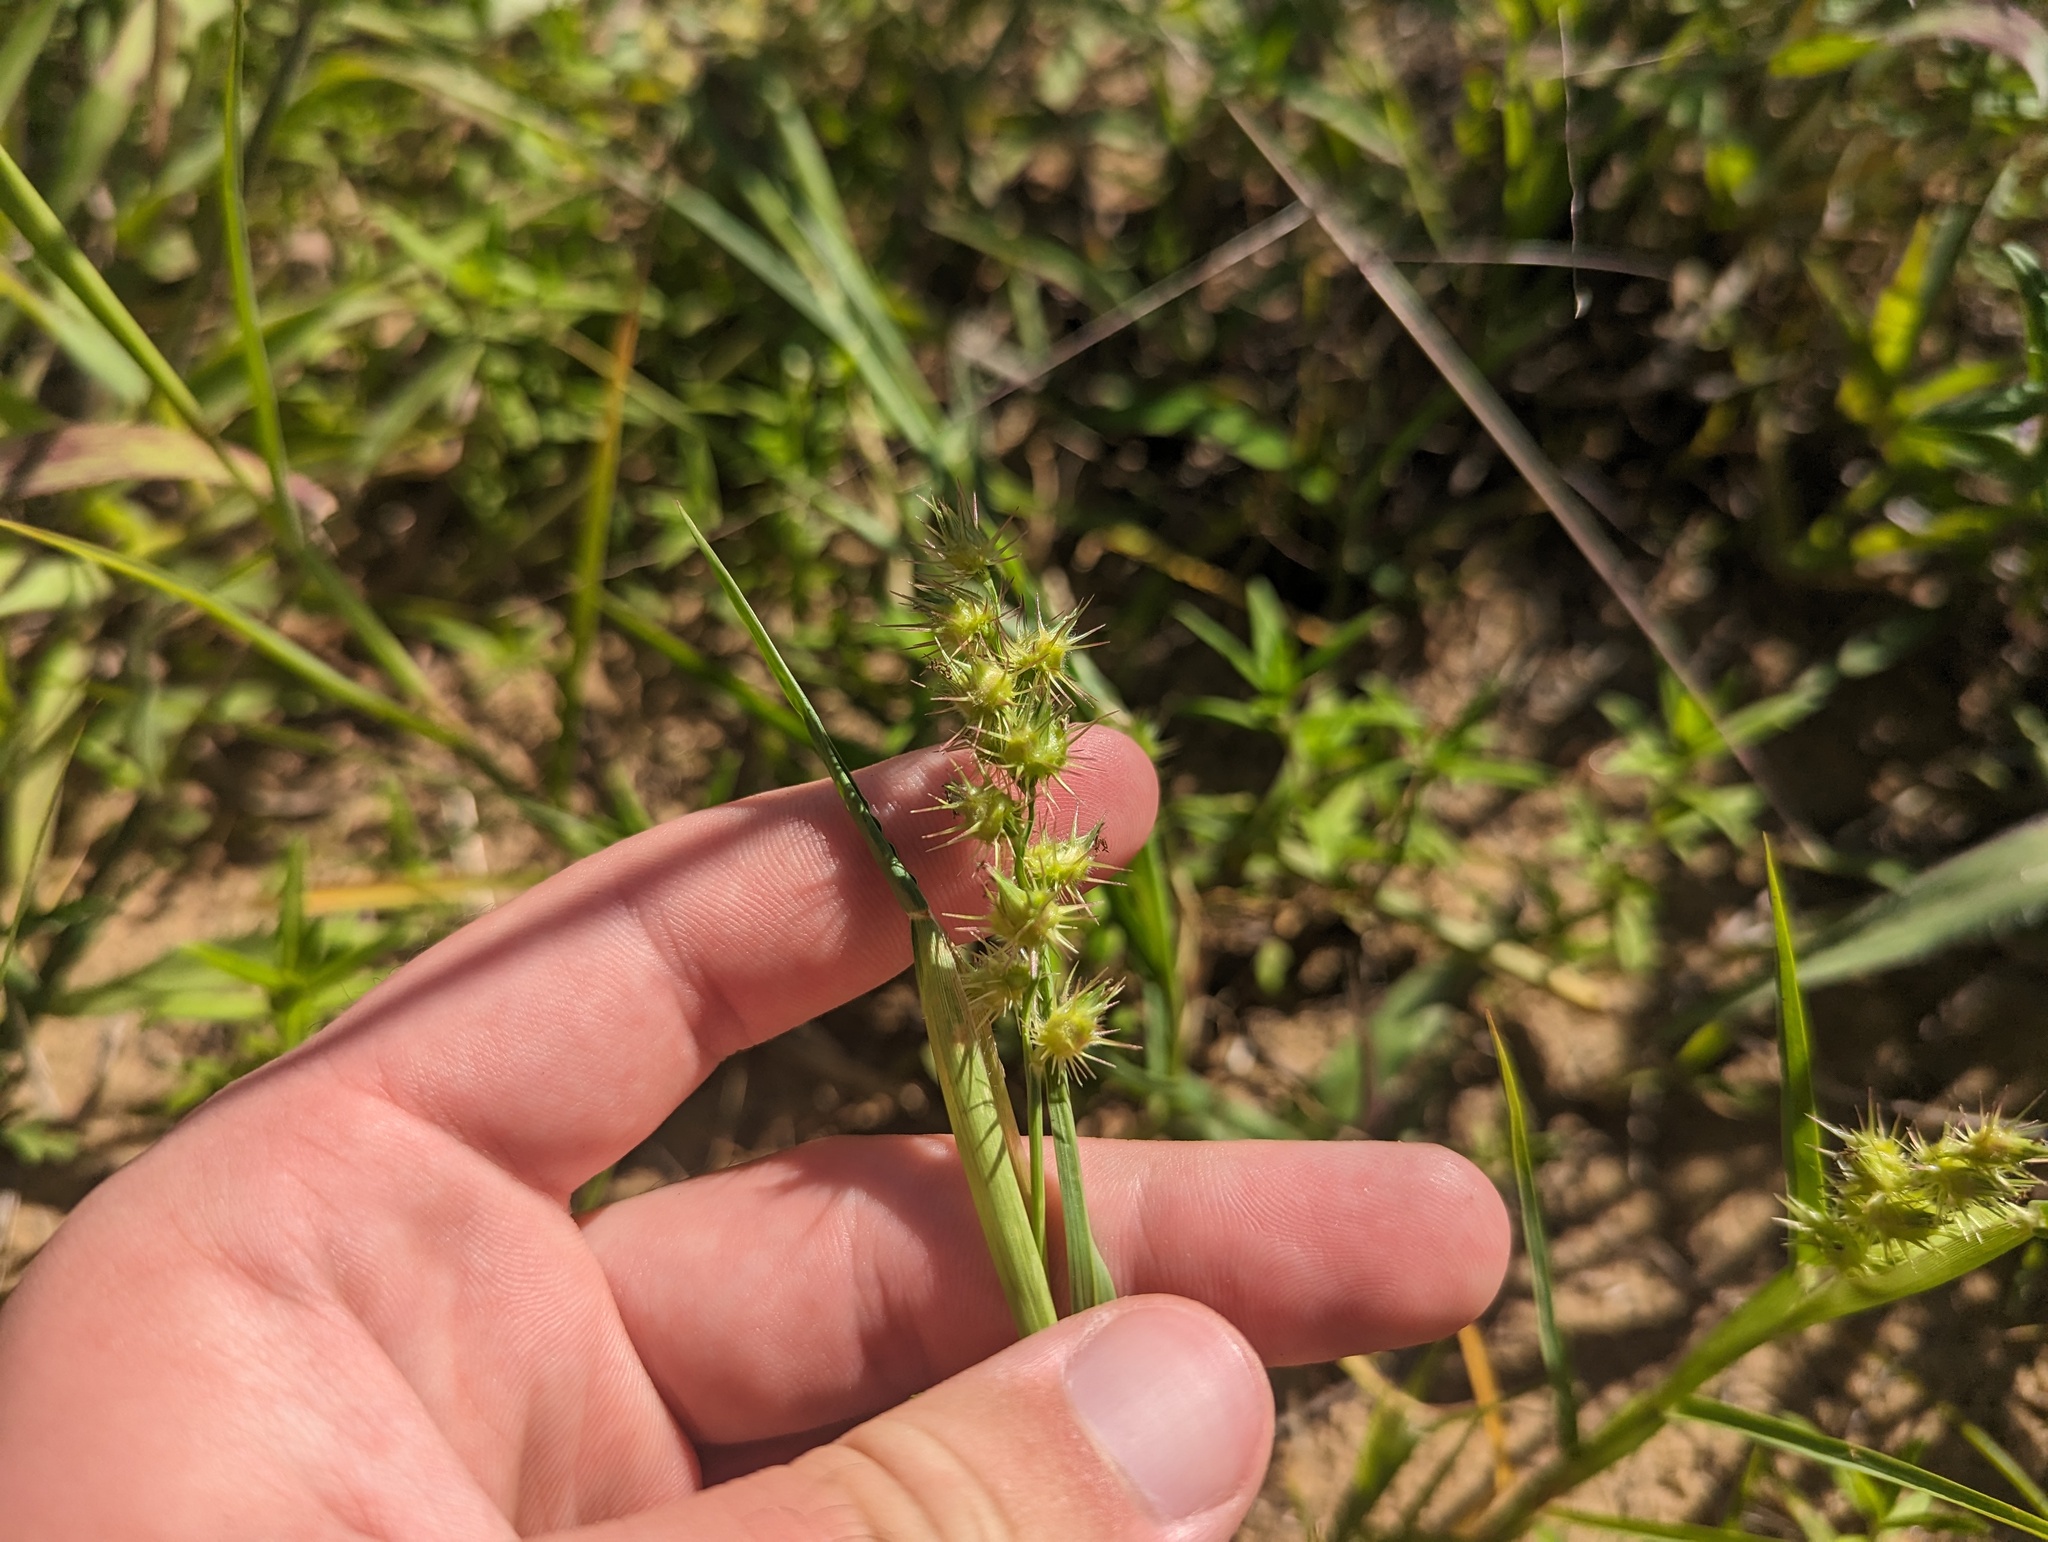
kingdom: Plantae
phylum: Tracheophyta
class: Liliopsida
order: Poales
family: Poaceae
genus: Cenchrus
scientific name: Cenchrus longispinus
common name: Mat sandbur
